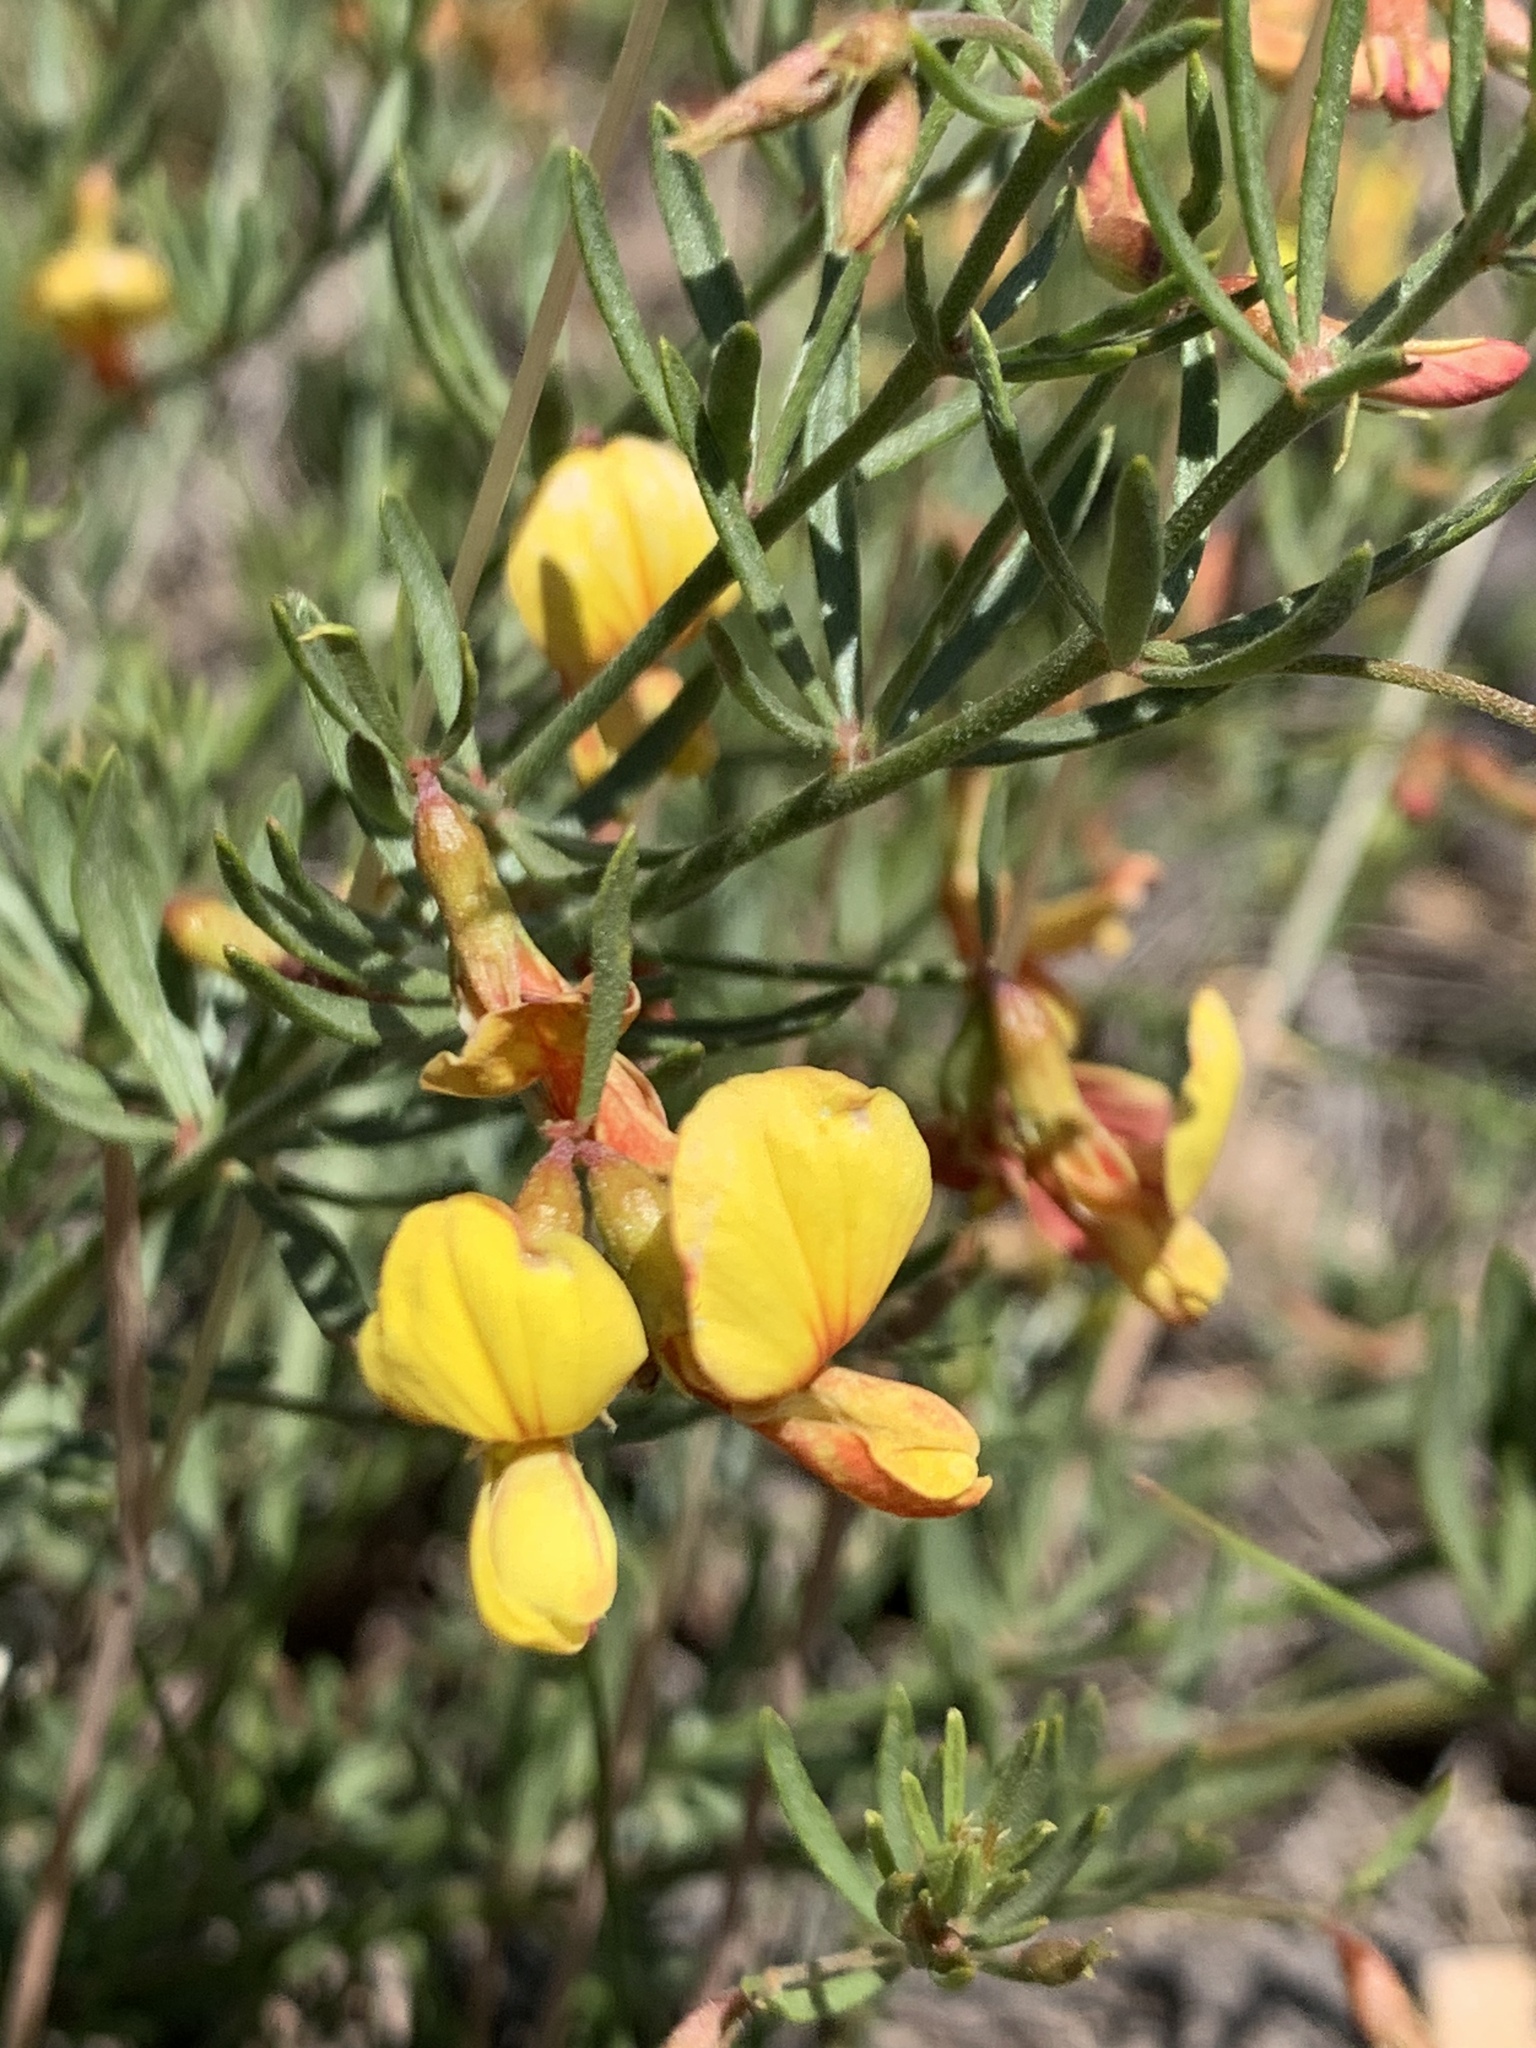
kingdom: Plantae
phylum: Tracheophyta
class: Magnoliopsida
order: Fabales
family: Fabaceae
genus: Acmispon
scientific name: Acmispon wrightii
